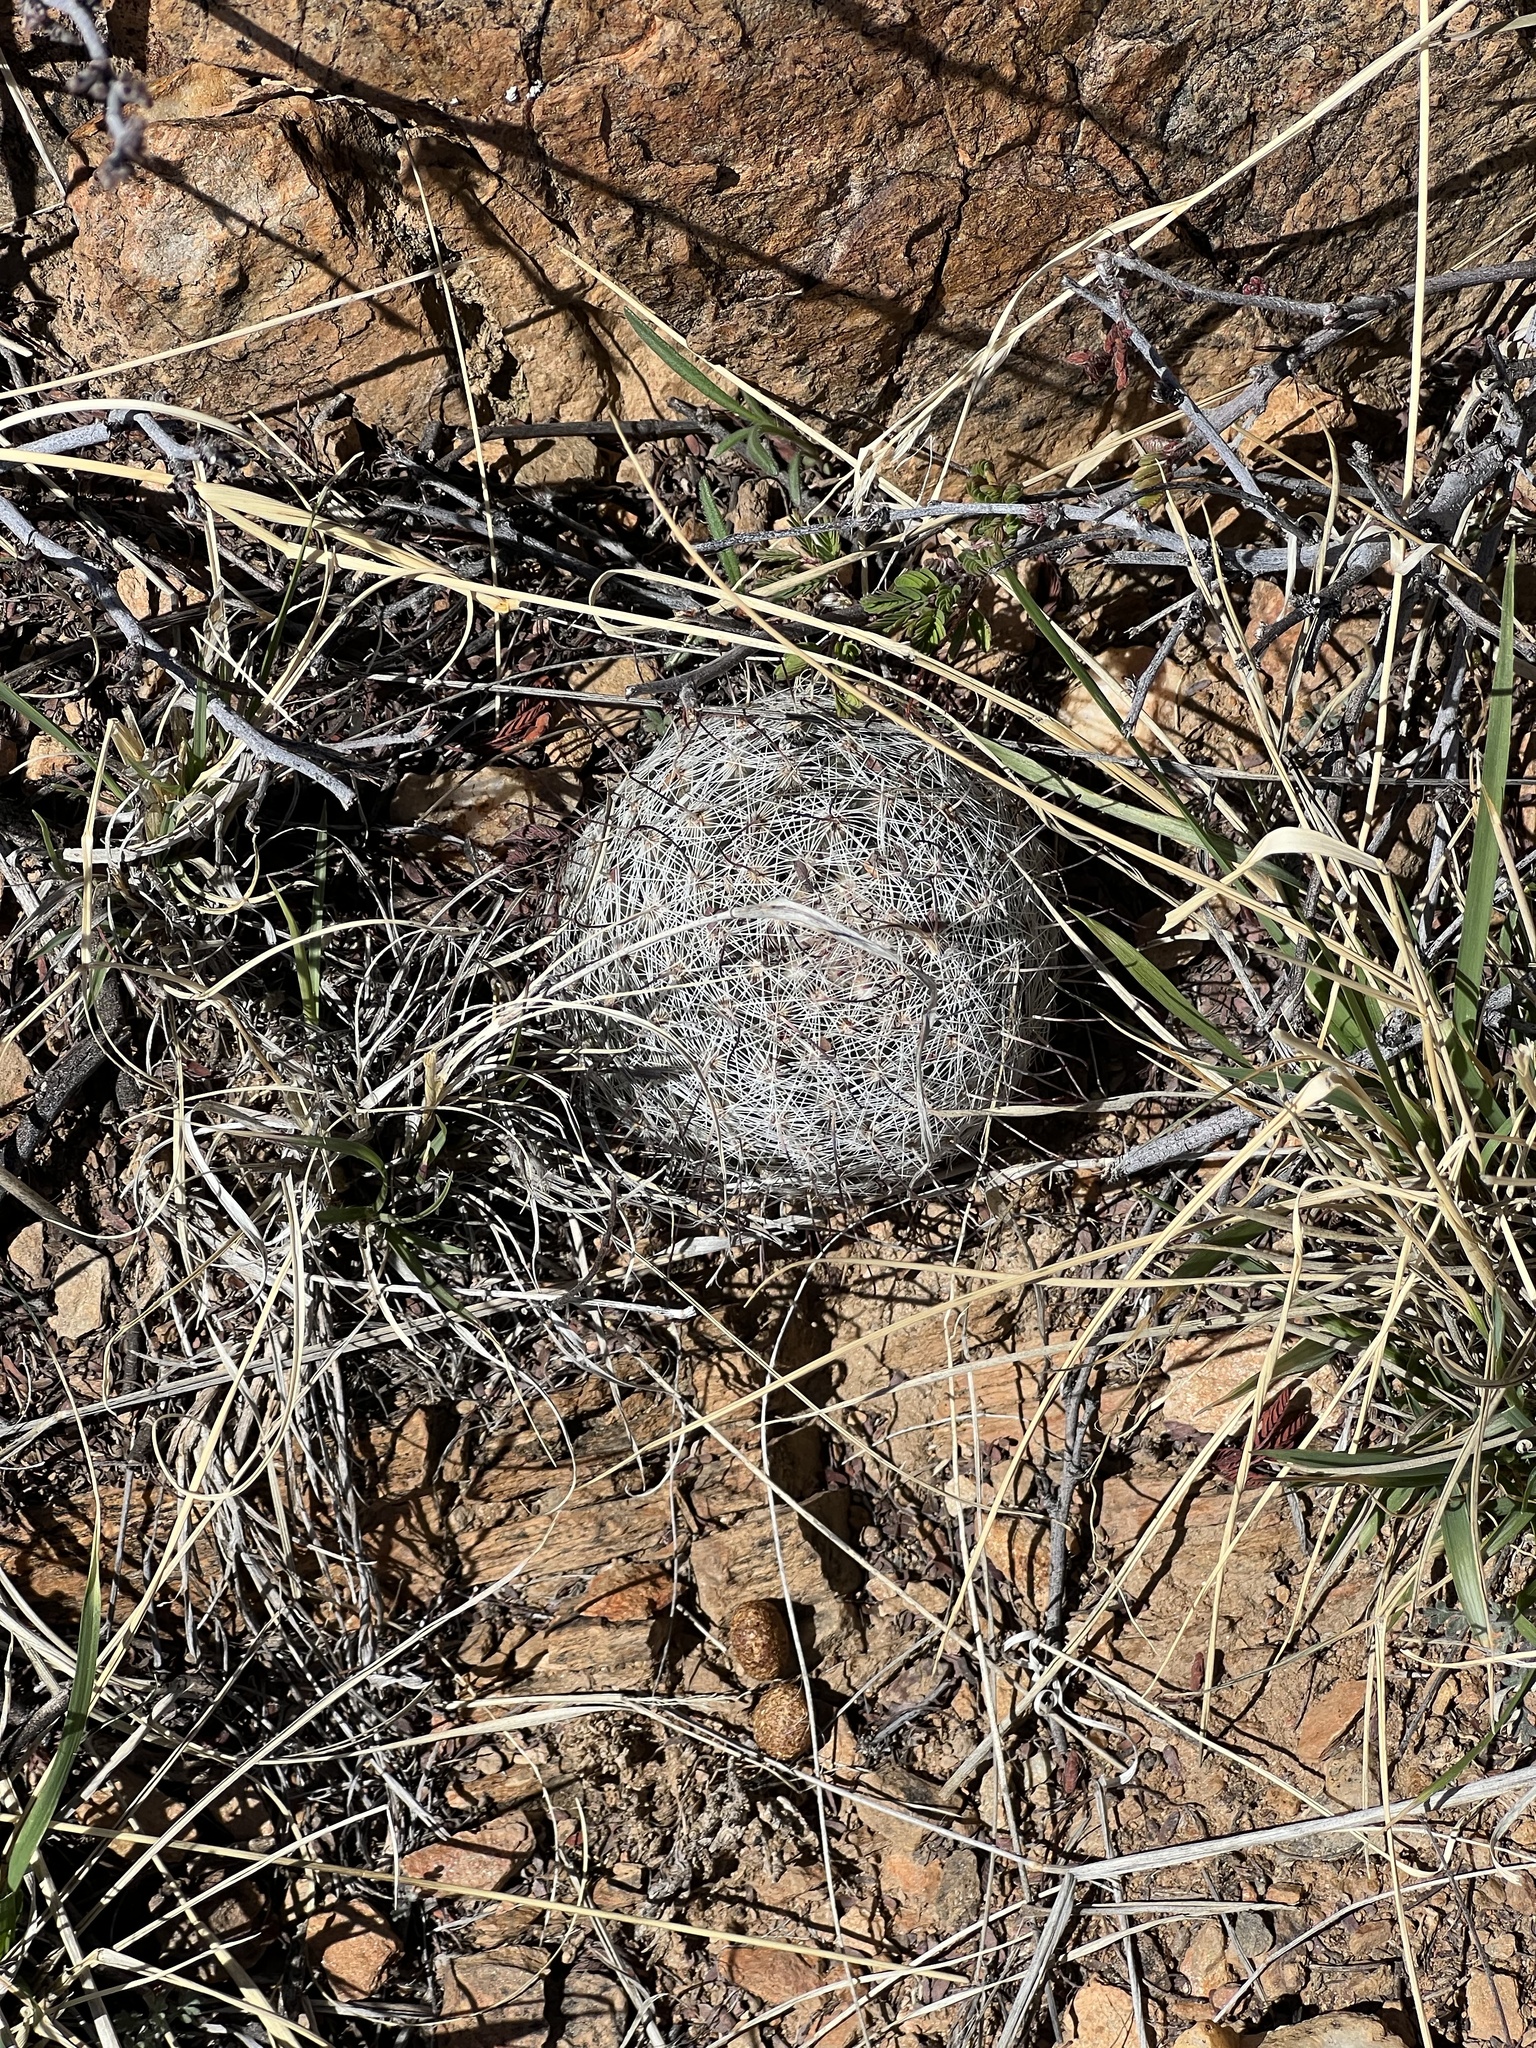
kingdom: Plantae
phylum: Tracheophyta
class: Magnoliopsida
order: Caryophyllales
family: Cactaceae
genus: Cochemiea
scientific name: Cochemiea grahamii
